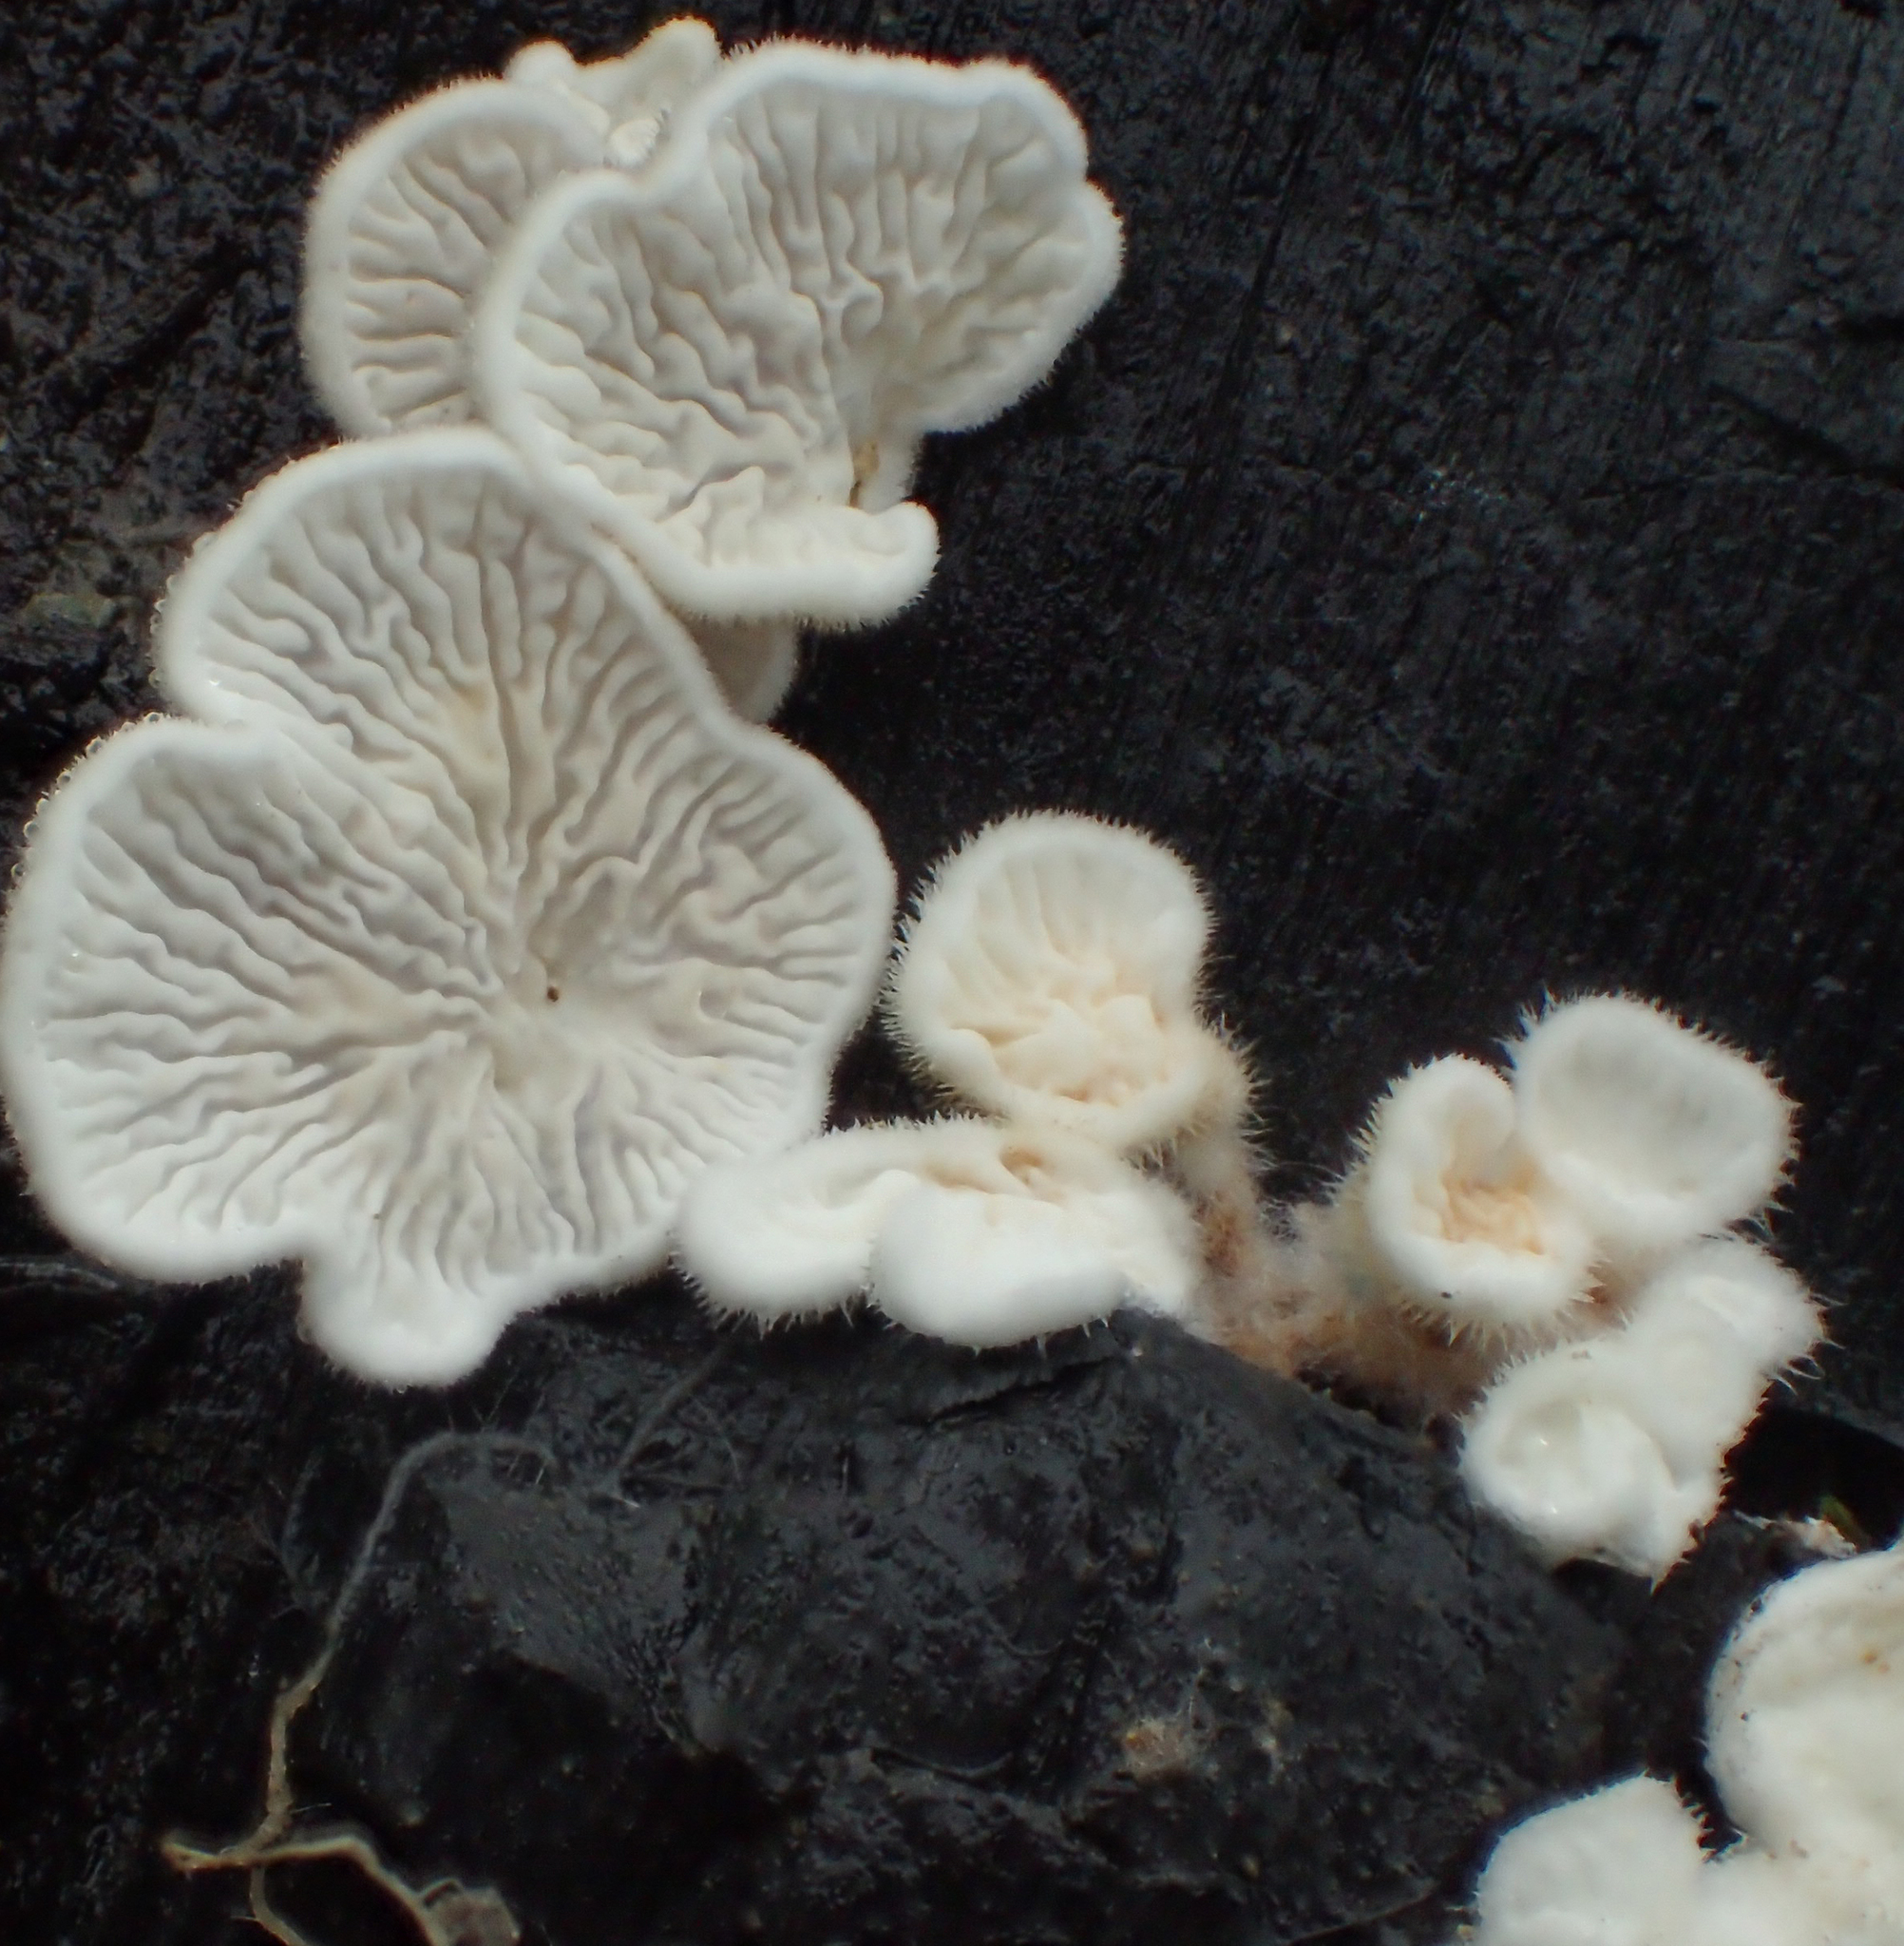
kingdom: Fungi
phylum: Basidiomycota
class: Agaricomycetes
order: Amylocorticiales
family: Amylocorticiaceae
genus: Plicaturopsis
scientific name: Plicaturopsis crispa
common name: Crimped gill
